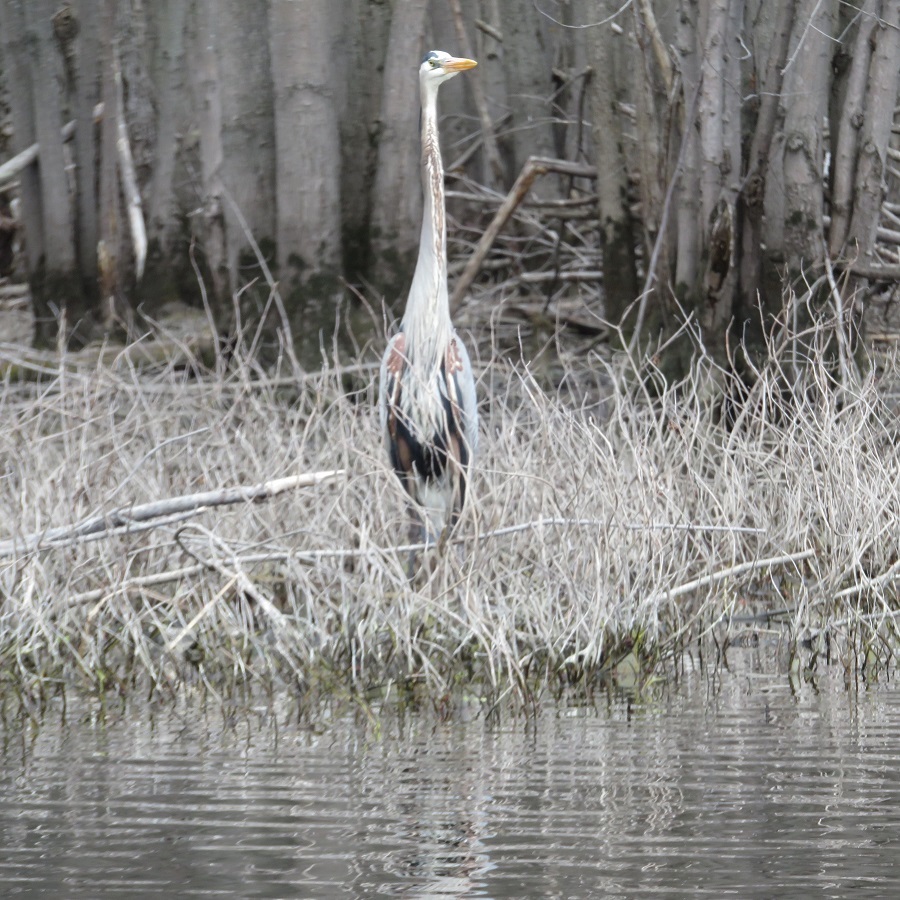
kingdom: Animalia
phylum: Chordata
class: Aves
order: Pelecaniformes
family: Ardeidae
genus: Ardea
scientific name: Ardea herodias
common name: Great blue heron
